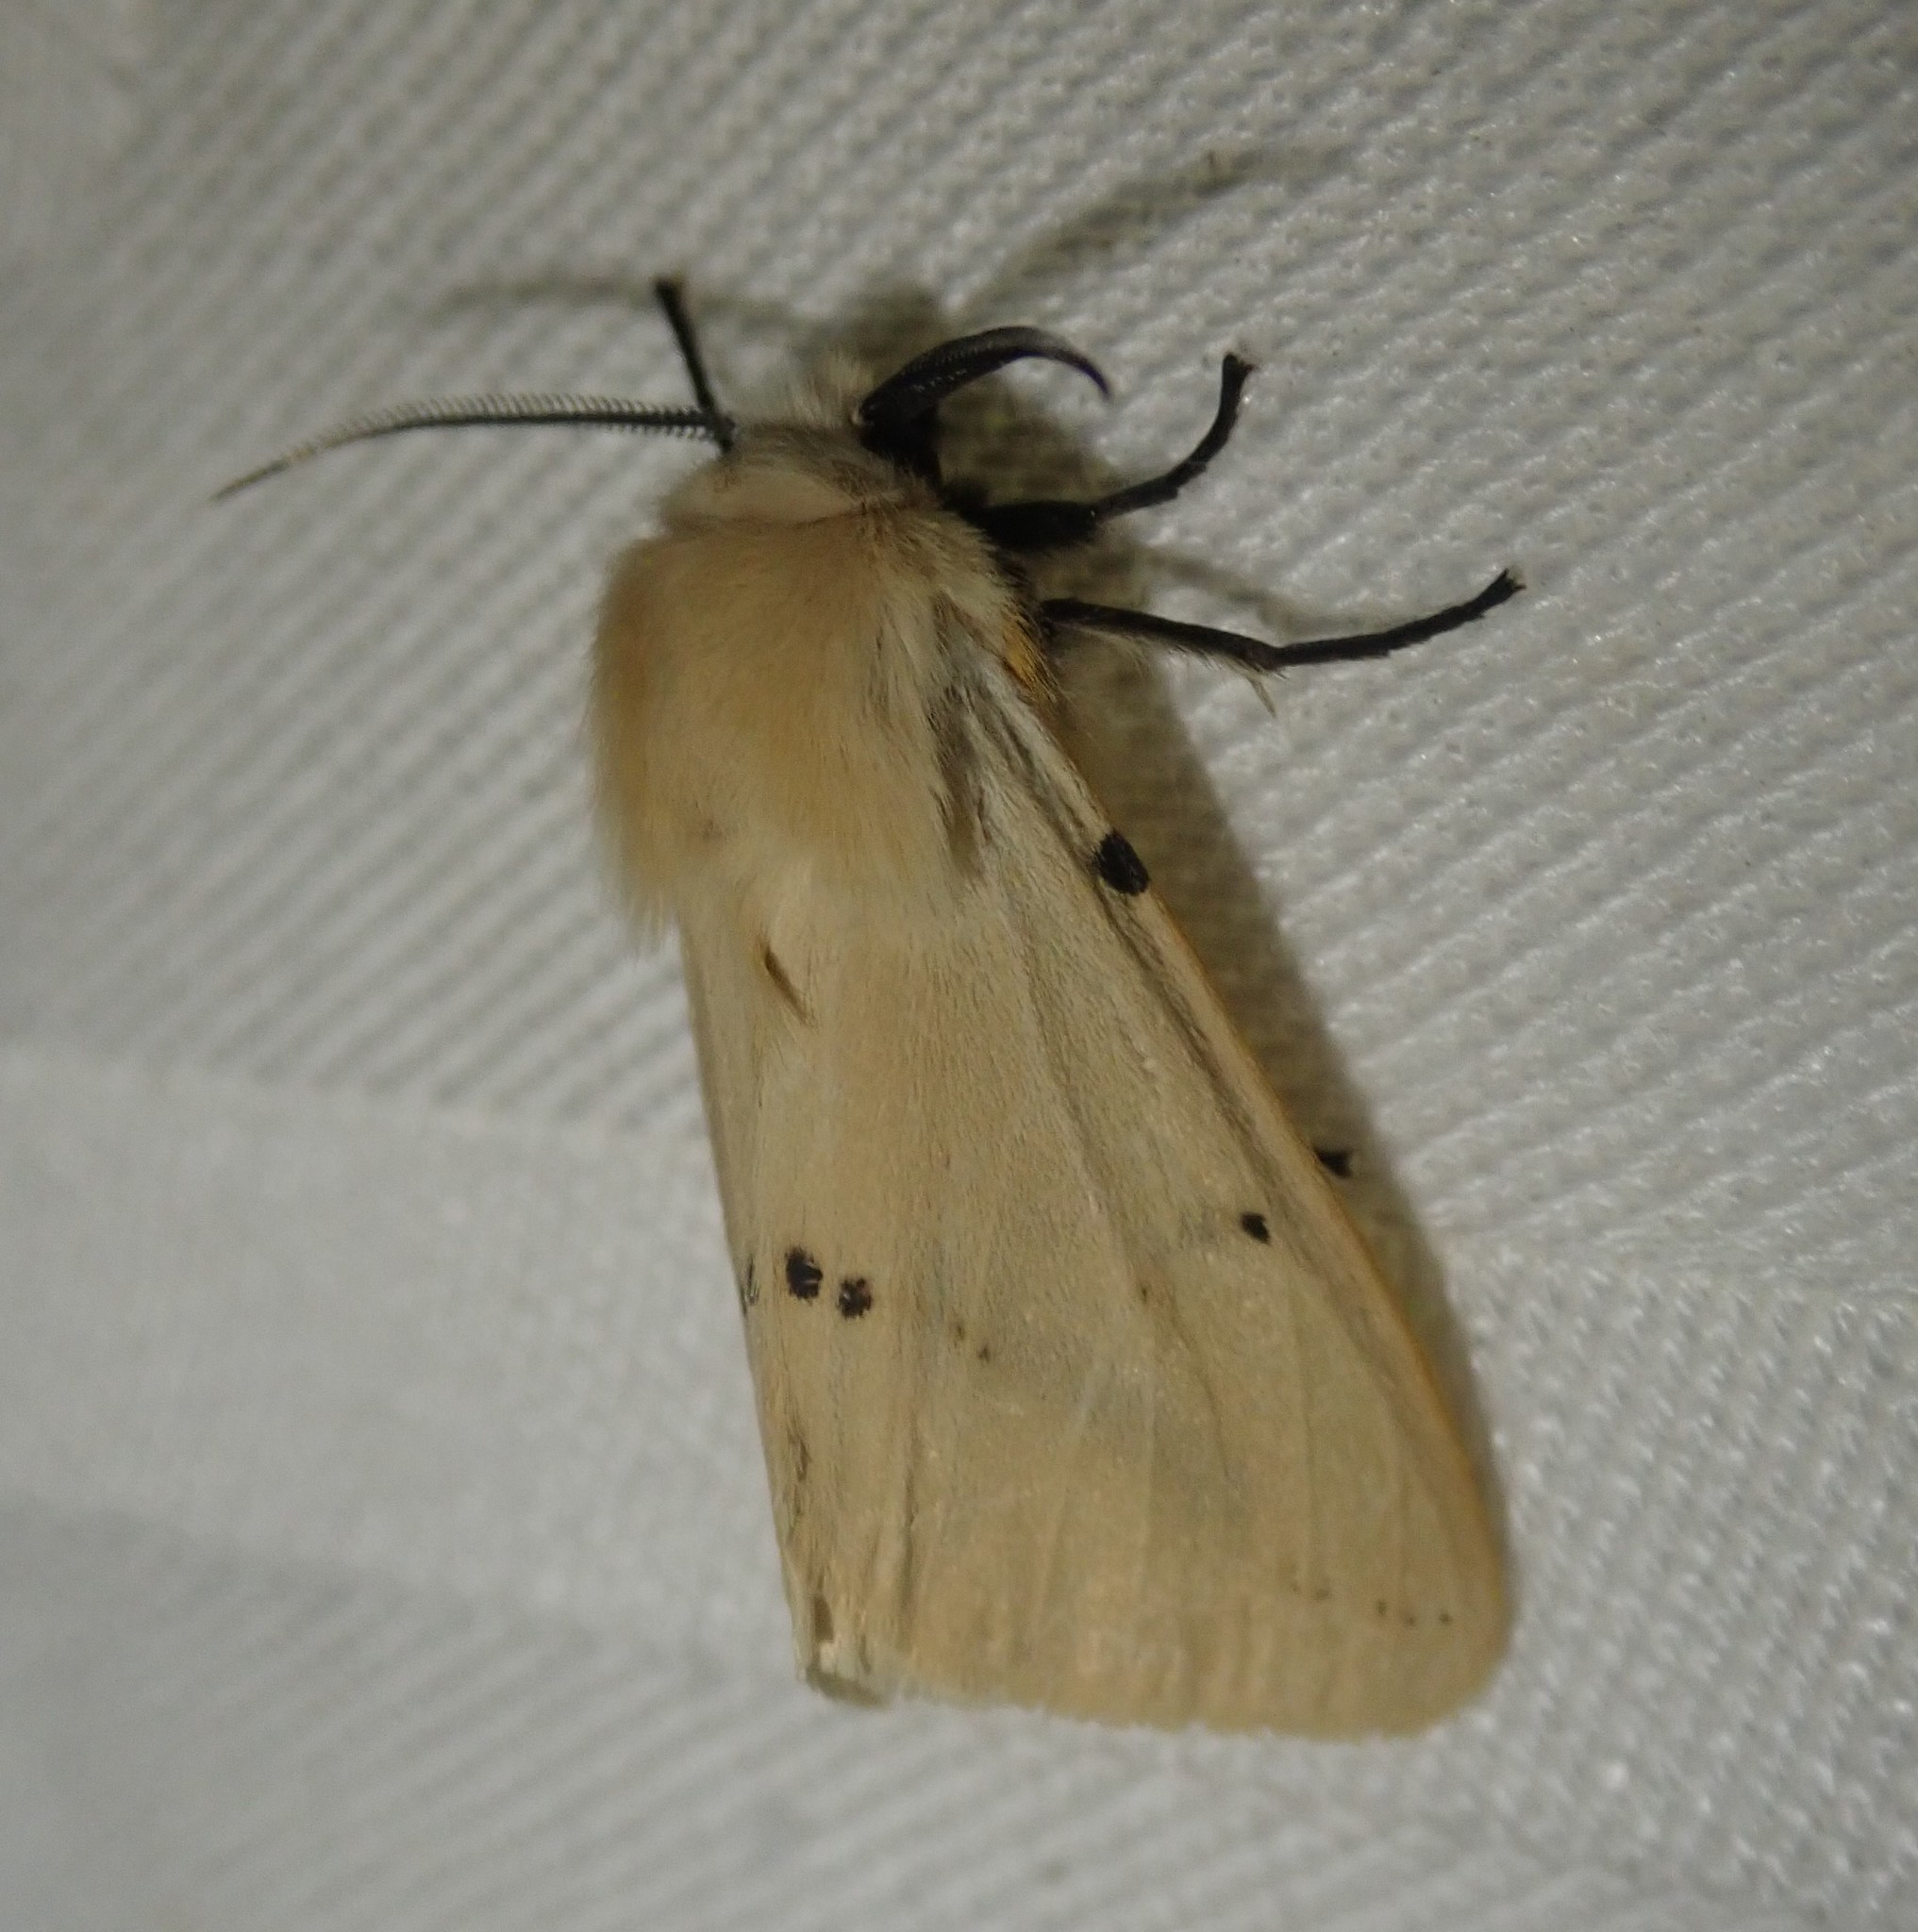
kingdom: Animalia
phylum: Arthropoda
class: Insecta
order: Lepidoptera
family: Erebidae
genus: Spilarctia
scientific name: Spilarctia lutea
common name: Buff ermine
